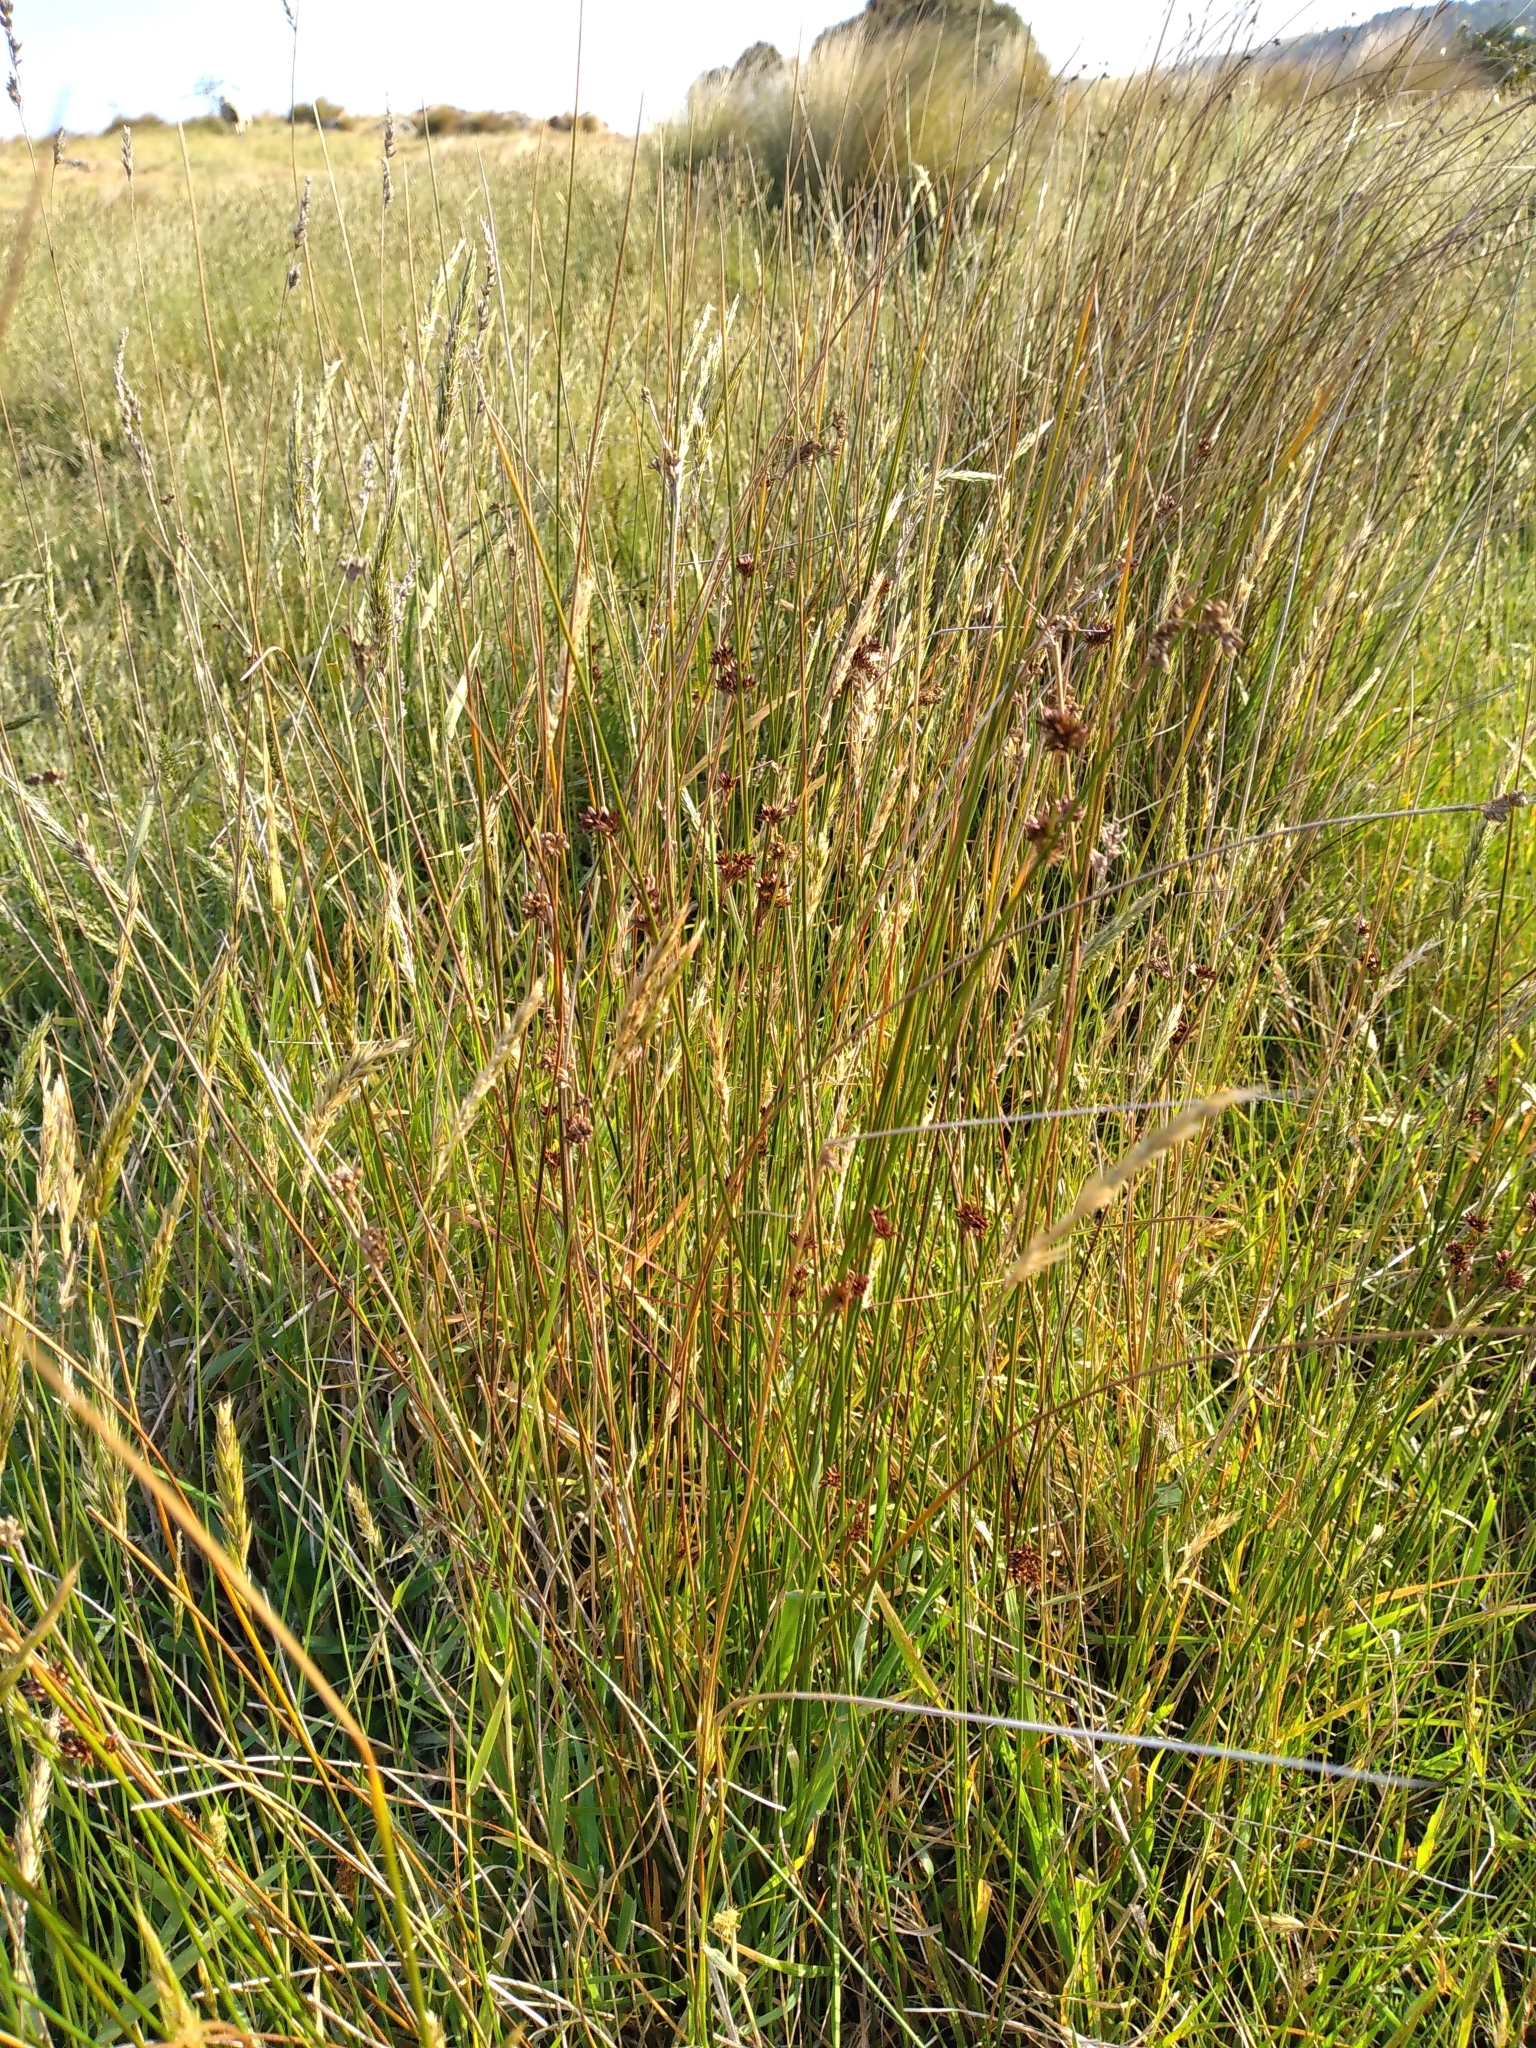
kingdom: Plantae
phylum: Tracheophyta
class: Liliopsida
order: Poales
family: Juncaceae
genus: Juncus
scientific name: Juncus filicaulis
